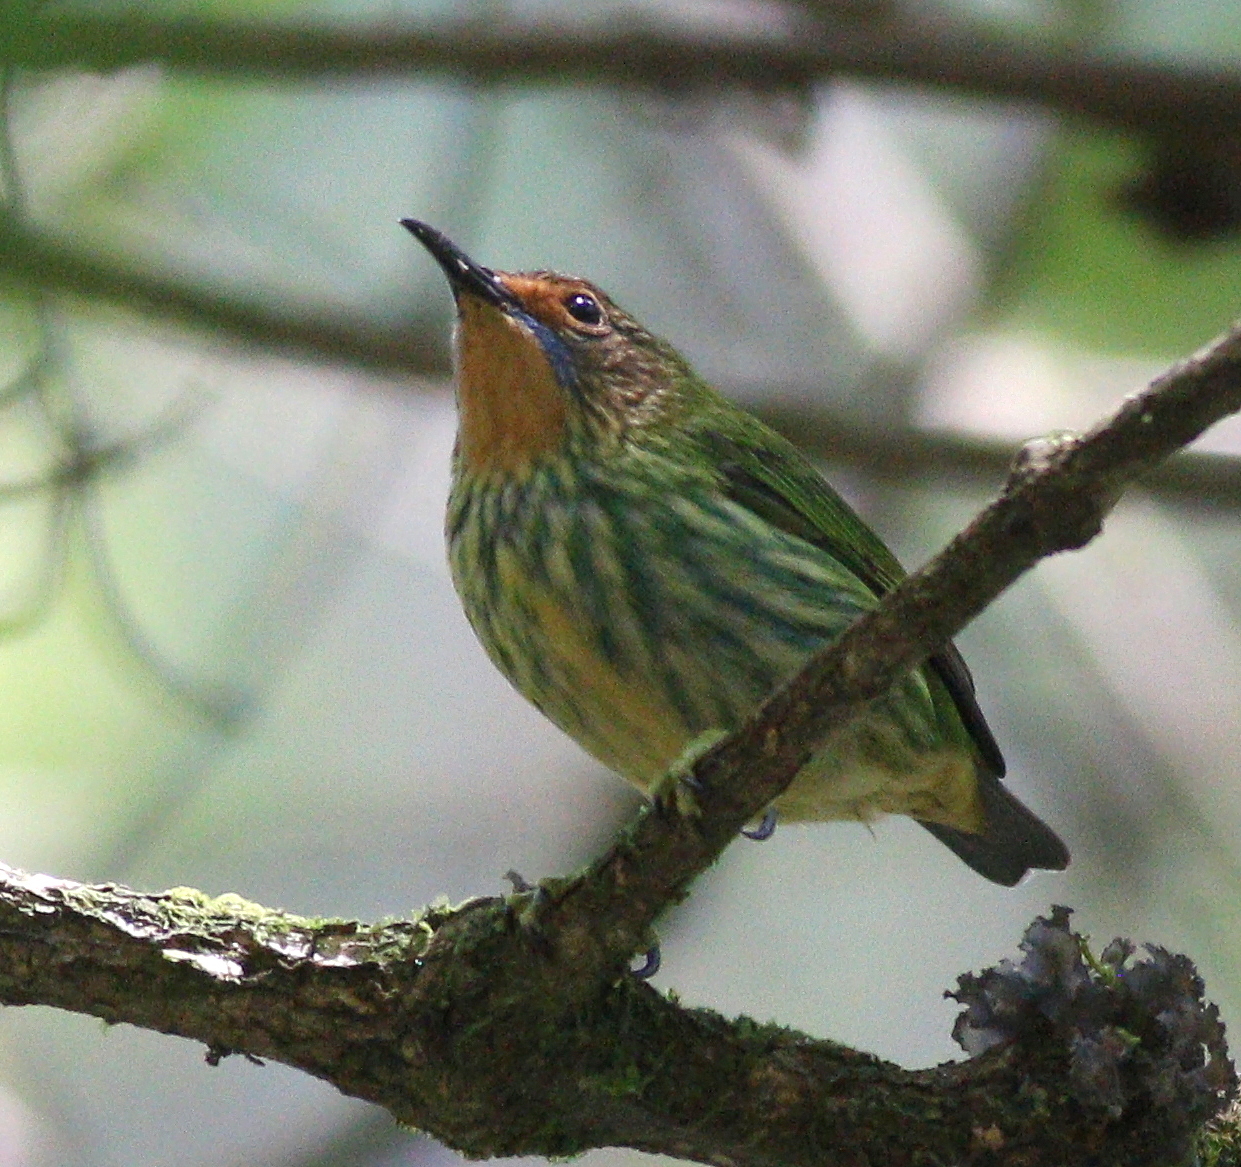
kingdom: Animalia
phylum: Chordata
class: Aves
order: Passeriformes
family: Thraupidae
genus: Cyanerpes
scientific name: Cyanerpes caeruleus
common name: Purple honeycreeper
